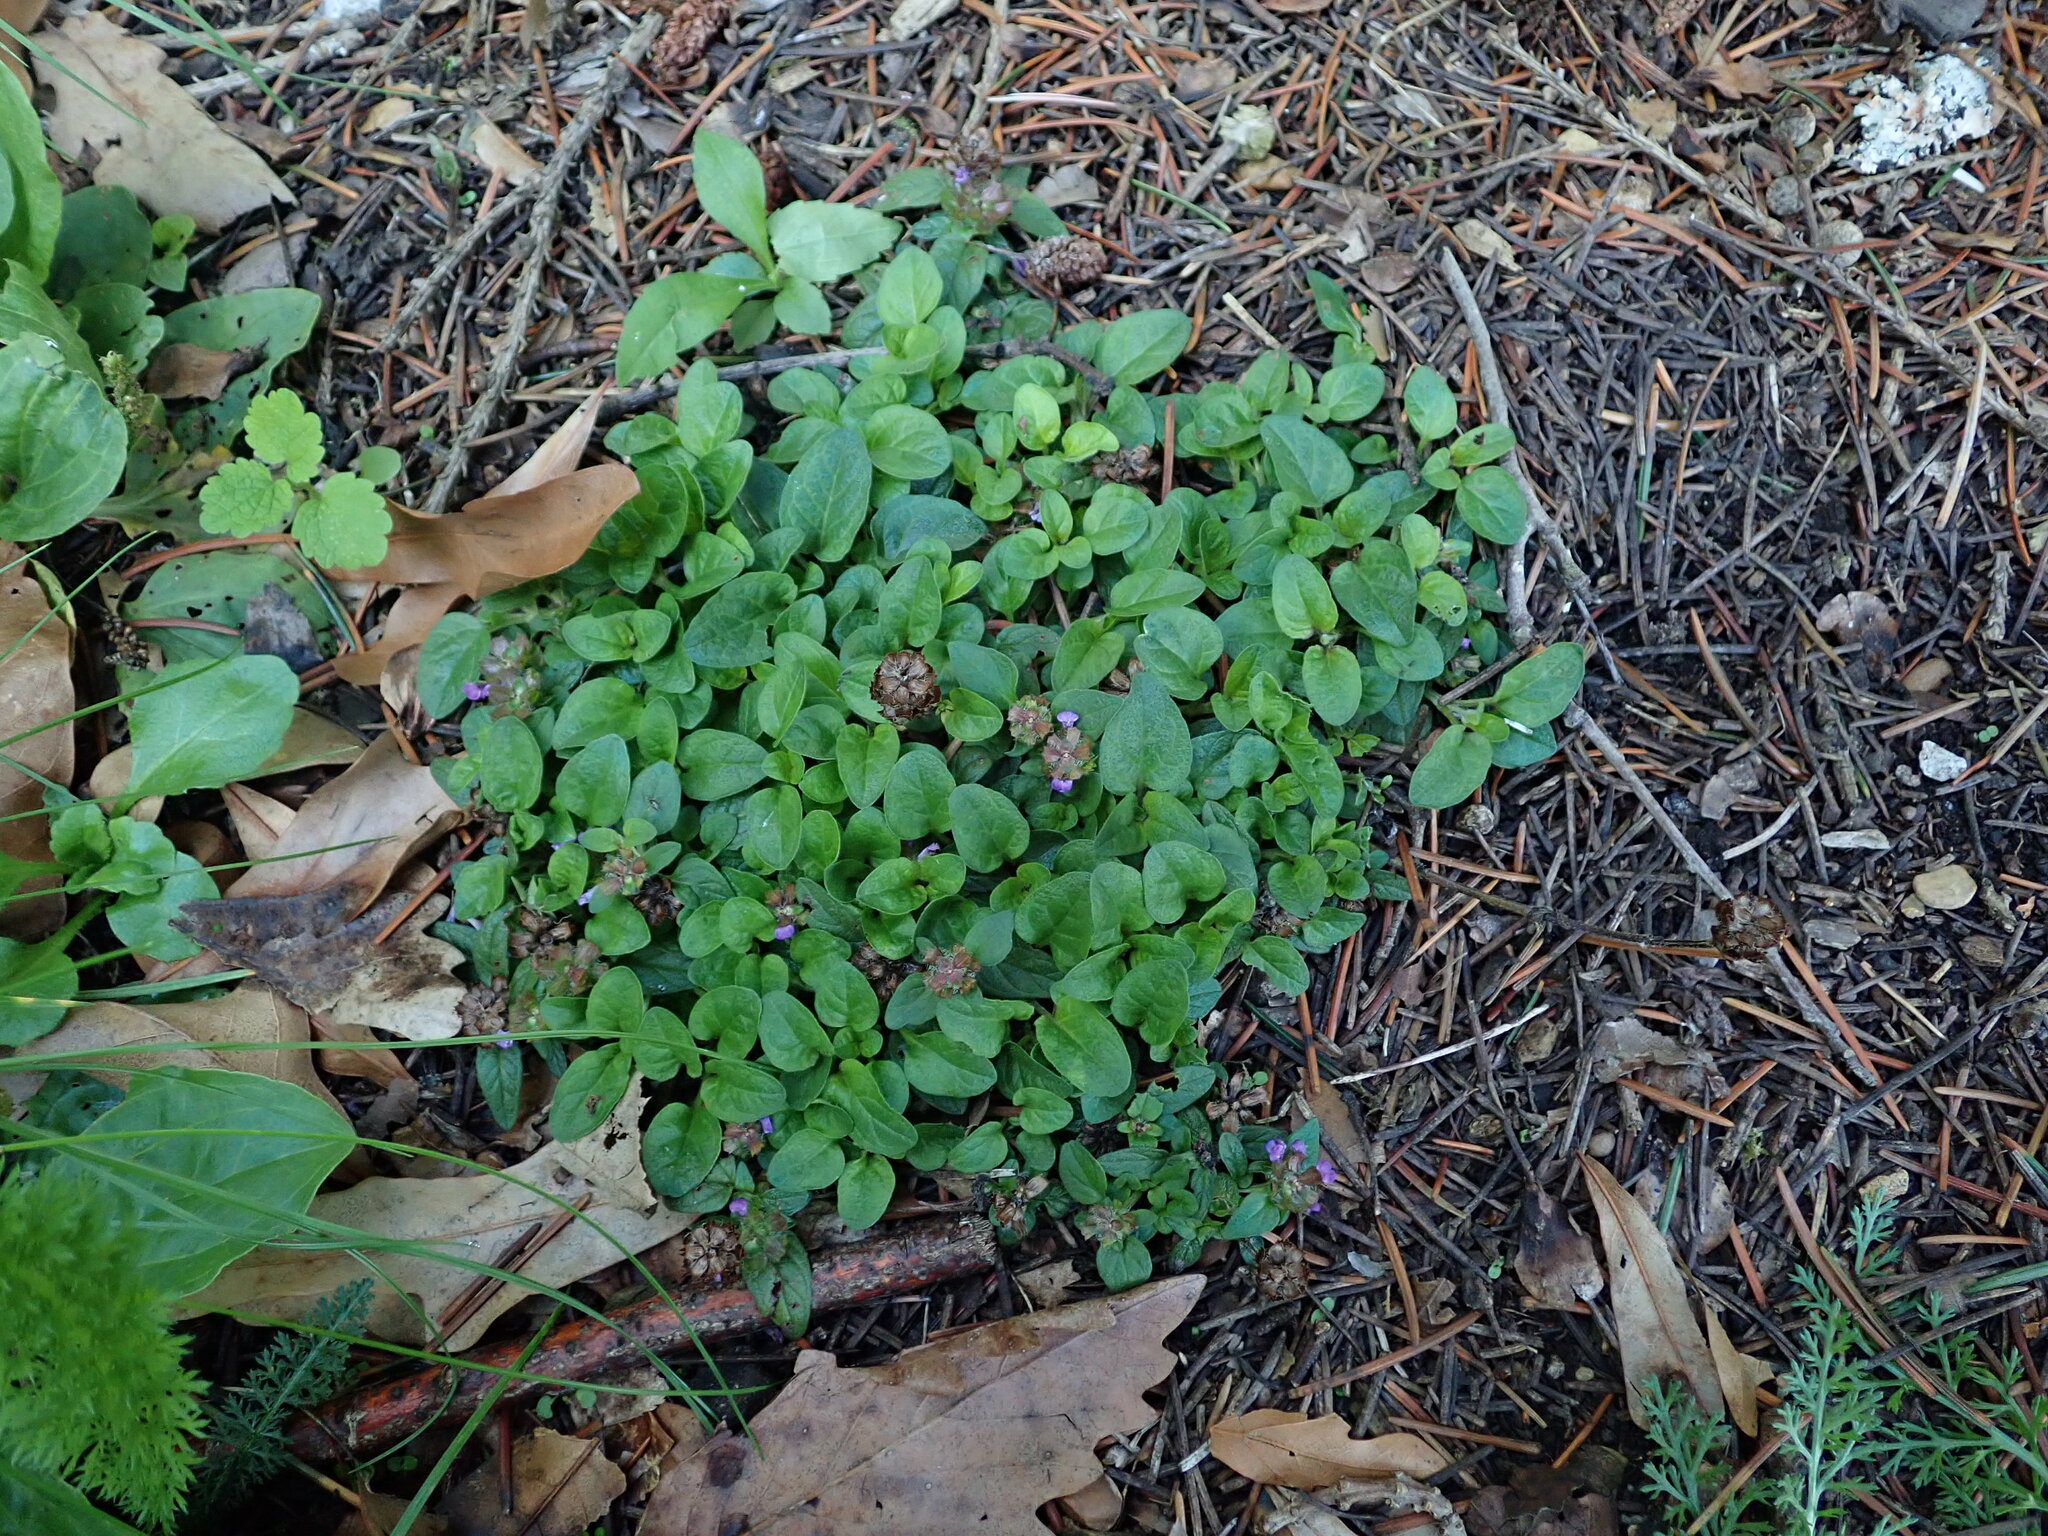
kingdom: Plantae
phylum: Tracheophyta
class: Magnoliopsida
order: Lamiales
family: Lamiaceae
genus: Prunella
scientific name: Prunella vulgaris
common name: Heal-all
